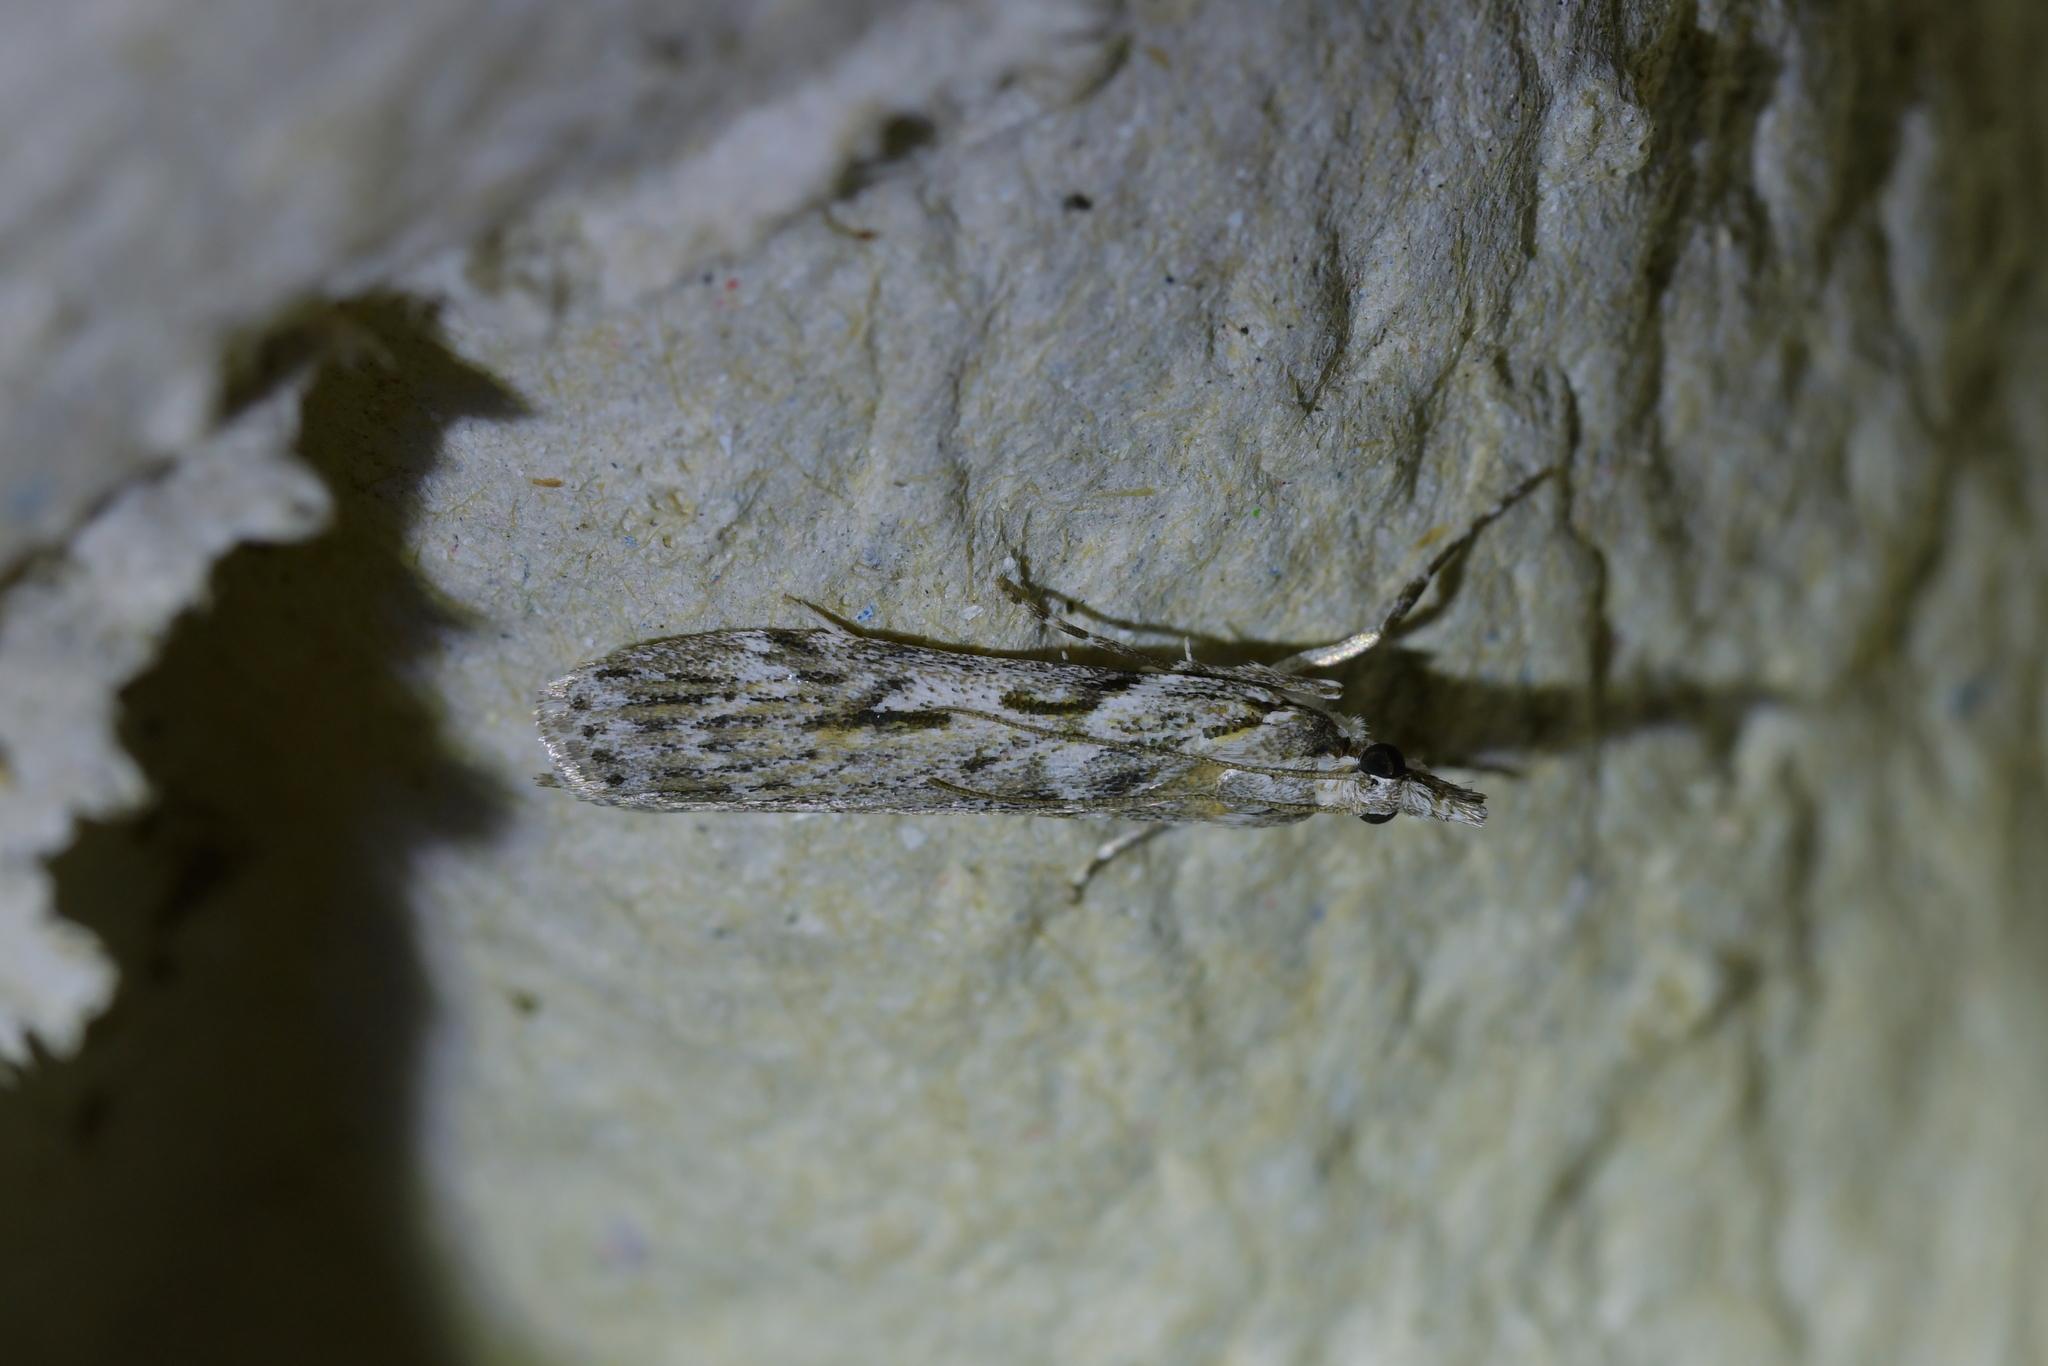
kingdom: Animalia
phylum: Arthropoda
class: Insecta
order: Lepidoptera
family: Crambidae
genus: Scoparia
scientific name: Scoparia halopis
